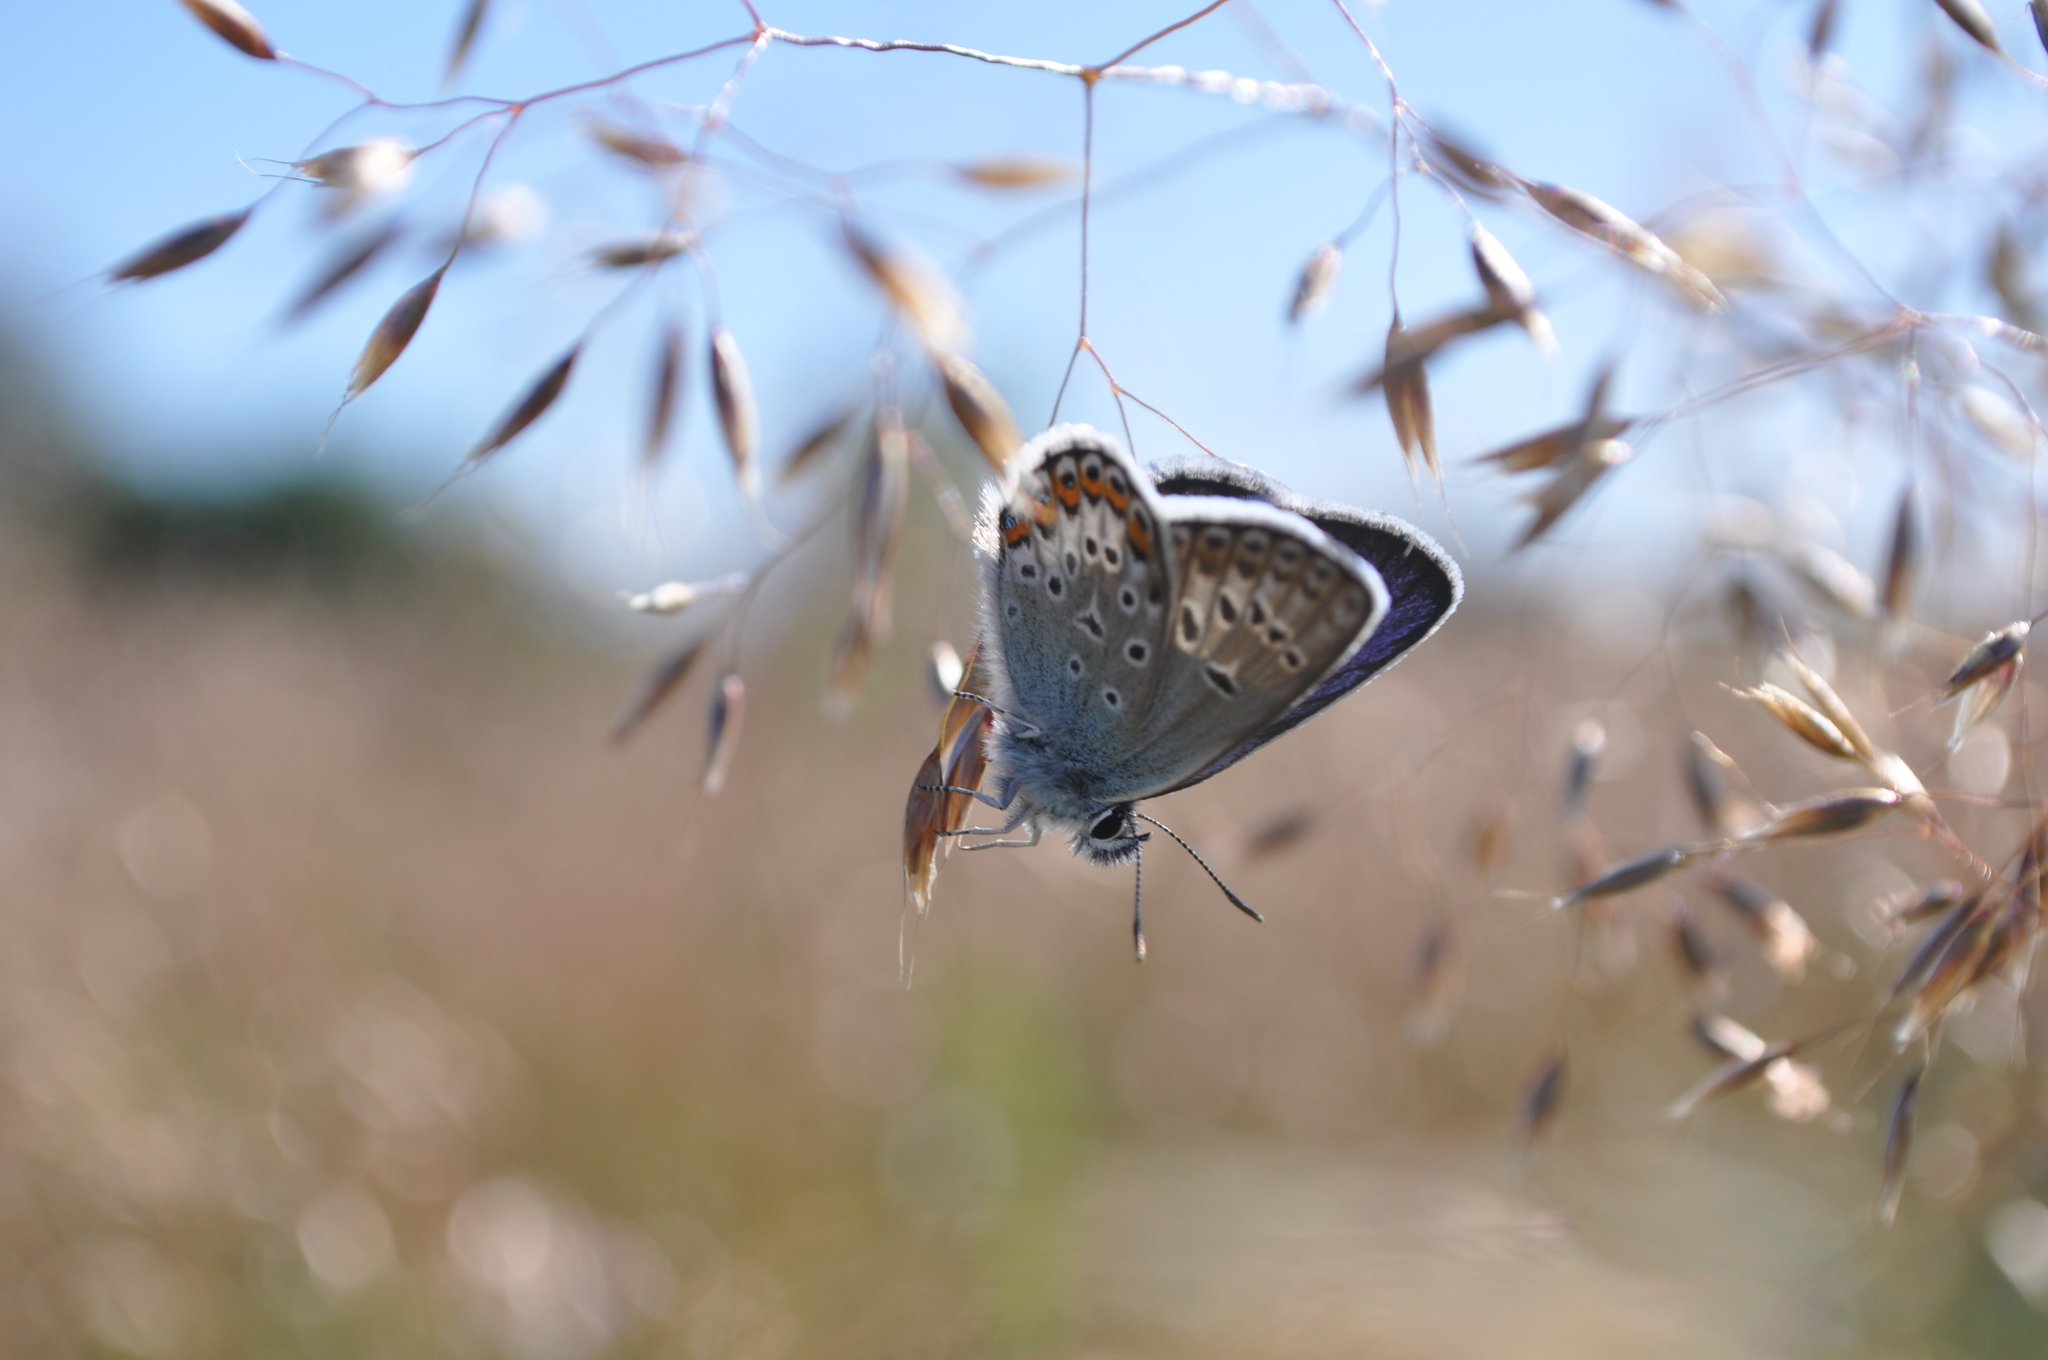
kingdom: Animalia
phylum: Arthropoda
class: Insecta
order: Lepidoptera
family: Lycaenidae
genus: Plebejus
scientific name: Plebejus argus
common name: Silver-studded blue
